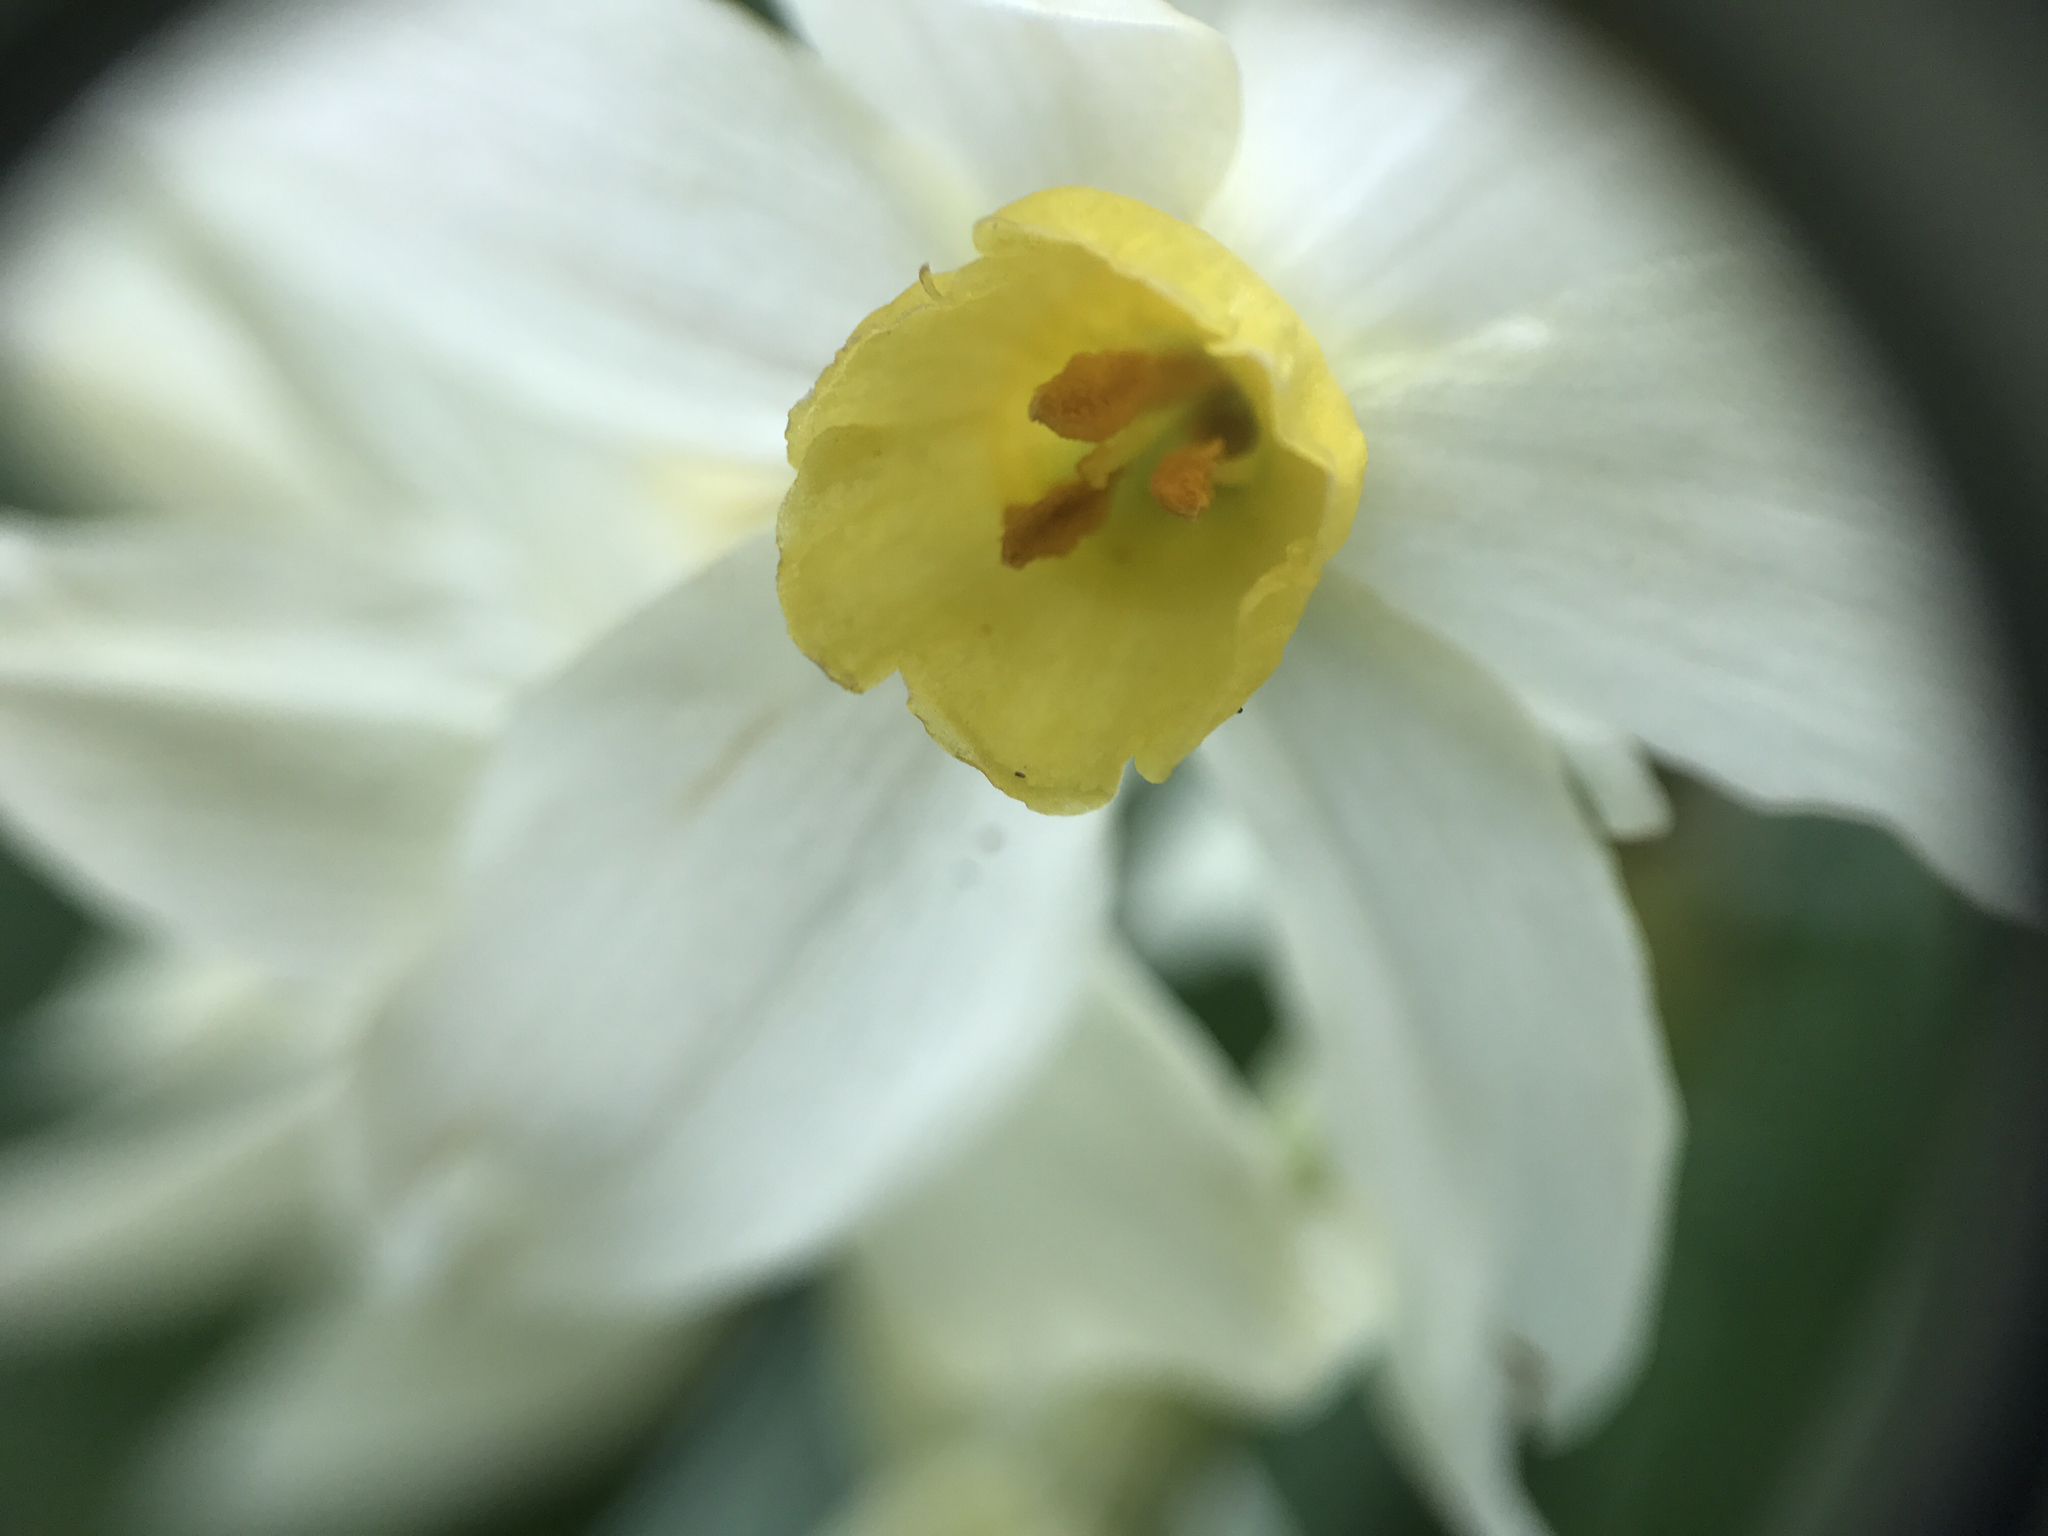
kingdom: Plantae
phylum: Tracheophyta
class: Liliopsida
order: Asparagales
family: Amaryllidaceae
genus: Narcissus
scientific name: Narcissus tazetta
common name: Bunch-flowered daffodil
